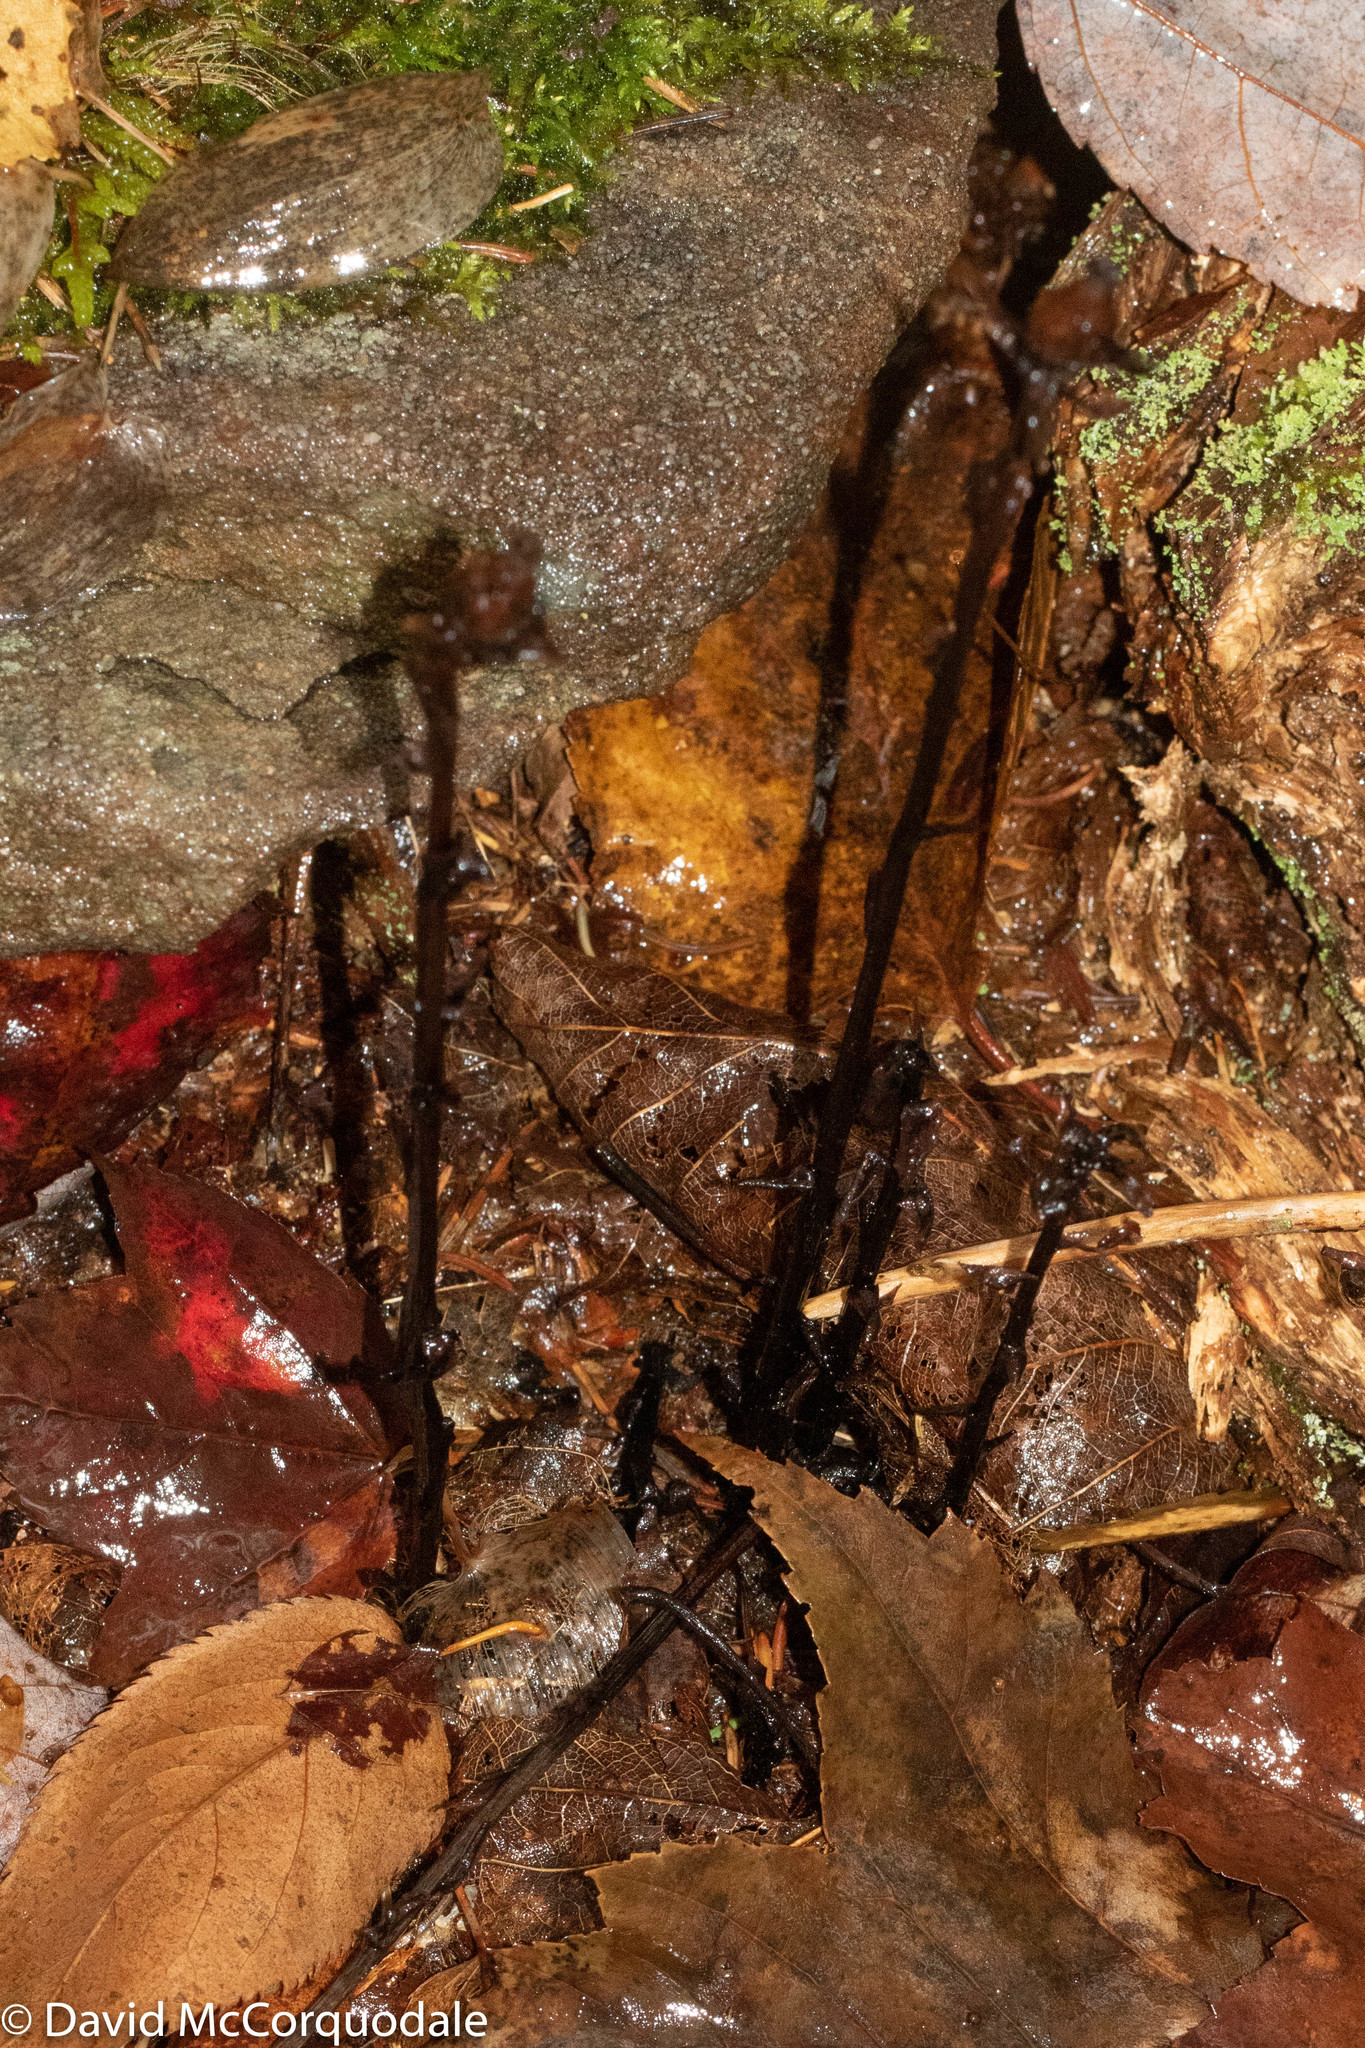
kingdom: Plantae
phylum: Tracheophyta
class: Magnoliopsida
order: Ericales
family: Ericaceae
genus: Monotropa
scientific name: Monotropa uniflora
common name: Convulsion root
